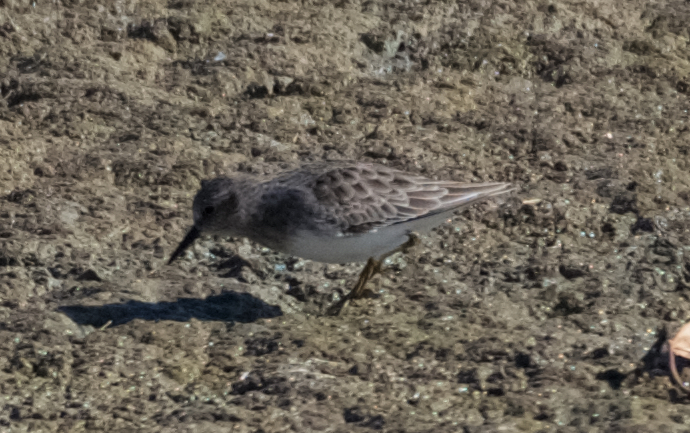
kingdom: Animalia
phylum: Chordata
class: Aves
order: Charadriiformes
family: Scolopacidae
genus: Calidris
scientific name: Calidris minutilla
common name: Least sandpiper
